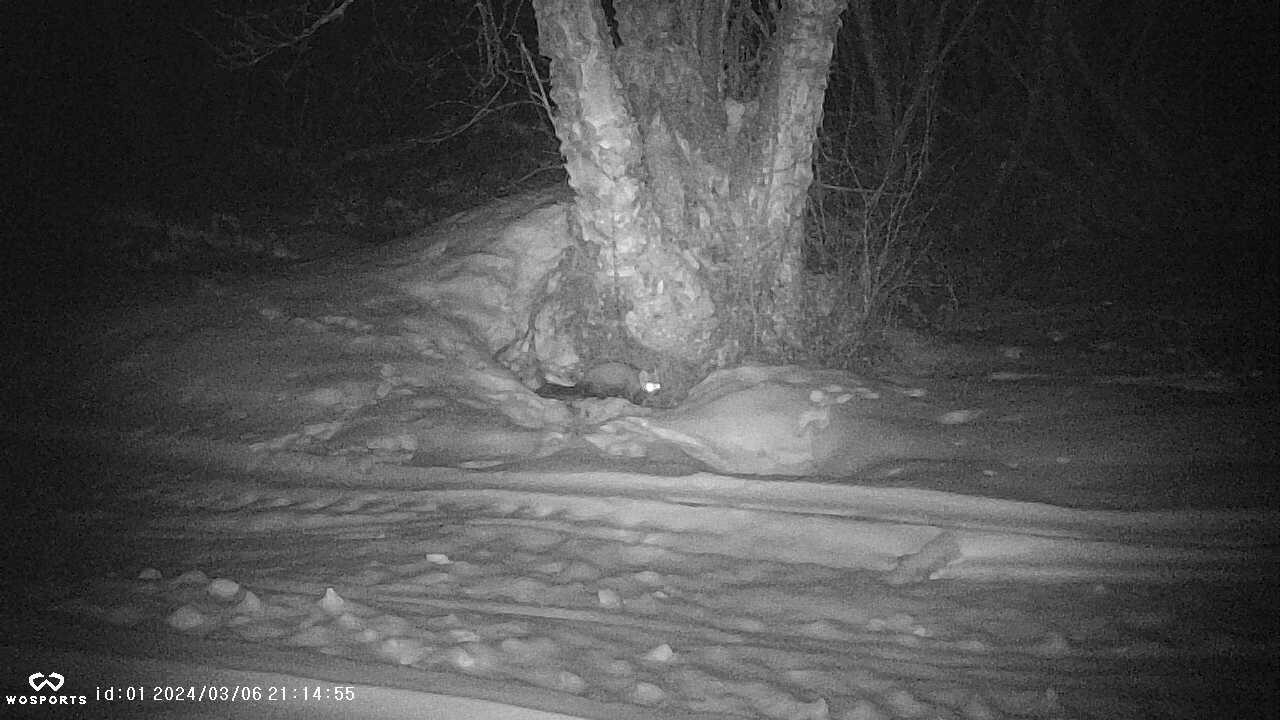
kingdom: Animalia
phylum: Chordata
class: Mammalia
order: Carnivora
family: Mustelidae
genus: Martes
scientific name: Martes americana
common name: American marten
